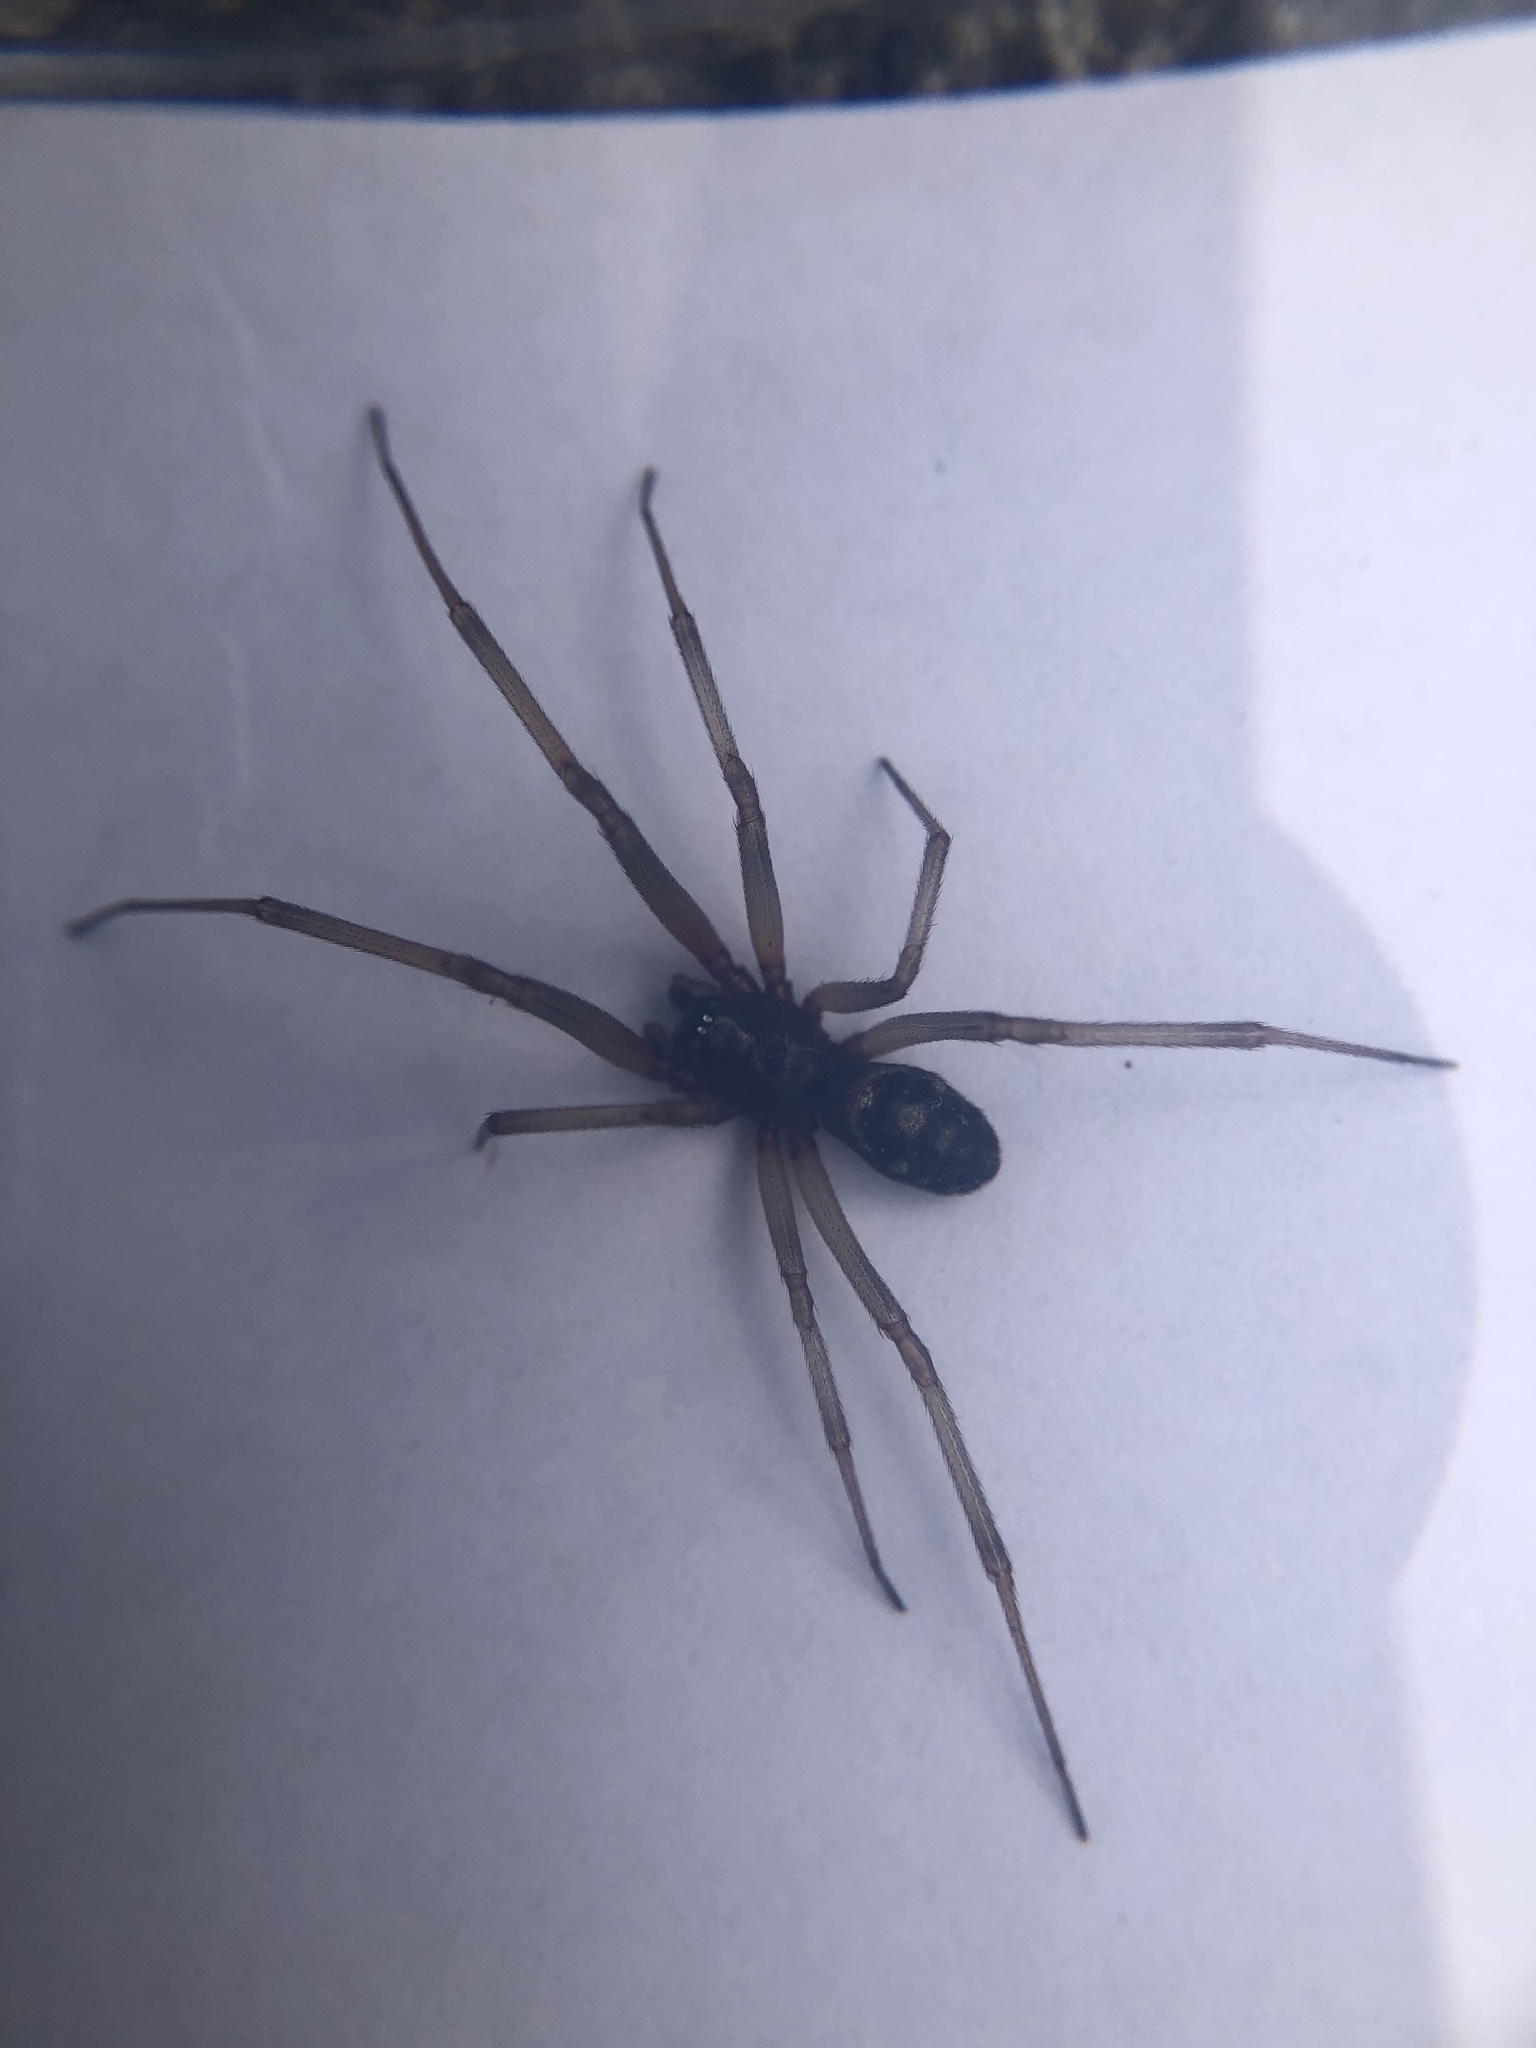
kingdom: Animalia
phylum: Arthropoda
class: Arachnida
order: Araneae
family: Theridiidae
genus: Steatoda
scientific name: Steatoda grossa
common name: False black widow
